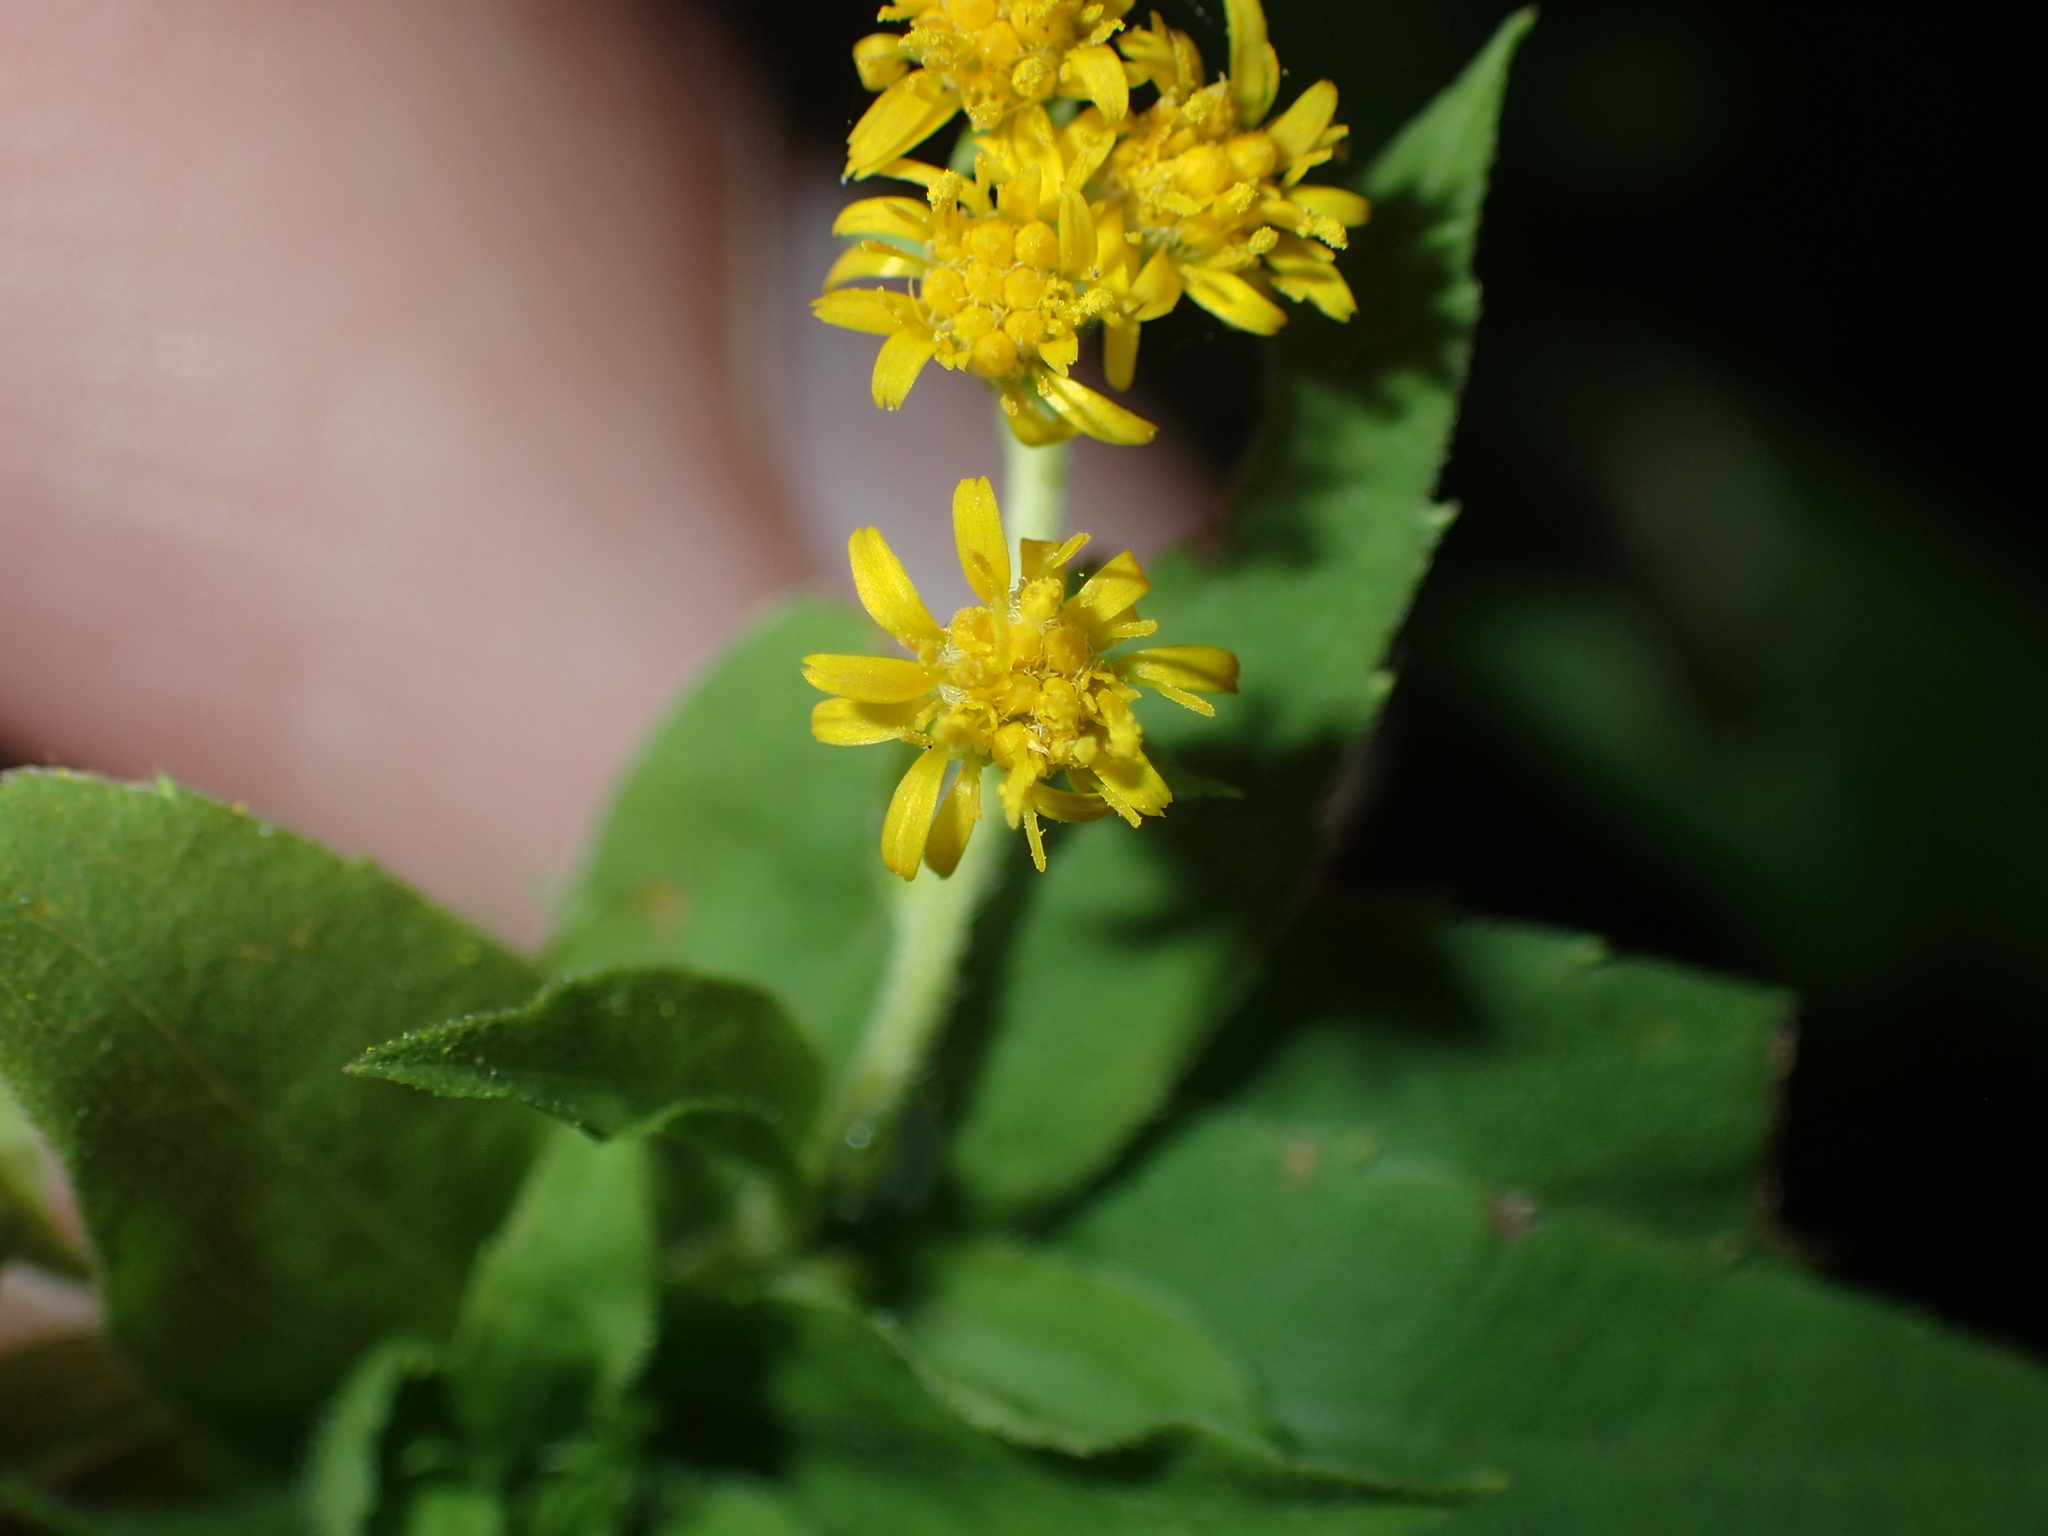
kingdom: Plantae
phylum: Tracheophyta
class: Magnoliopsida
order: Asterales
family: Asteraceae
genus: Solidago
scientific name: Solidago canadensis
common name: Canada goldenrod
